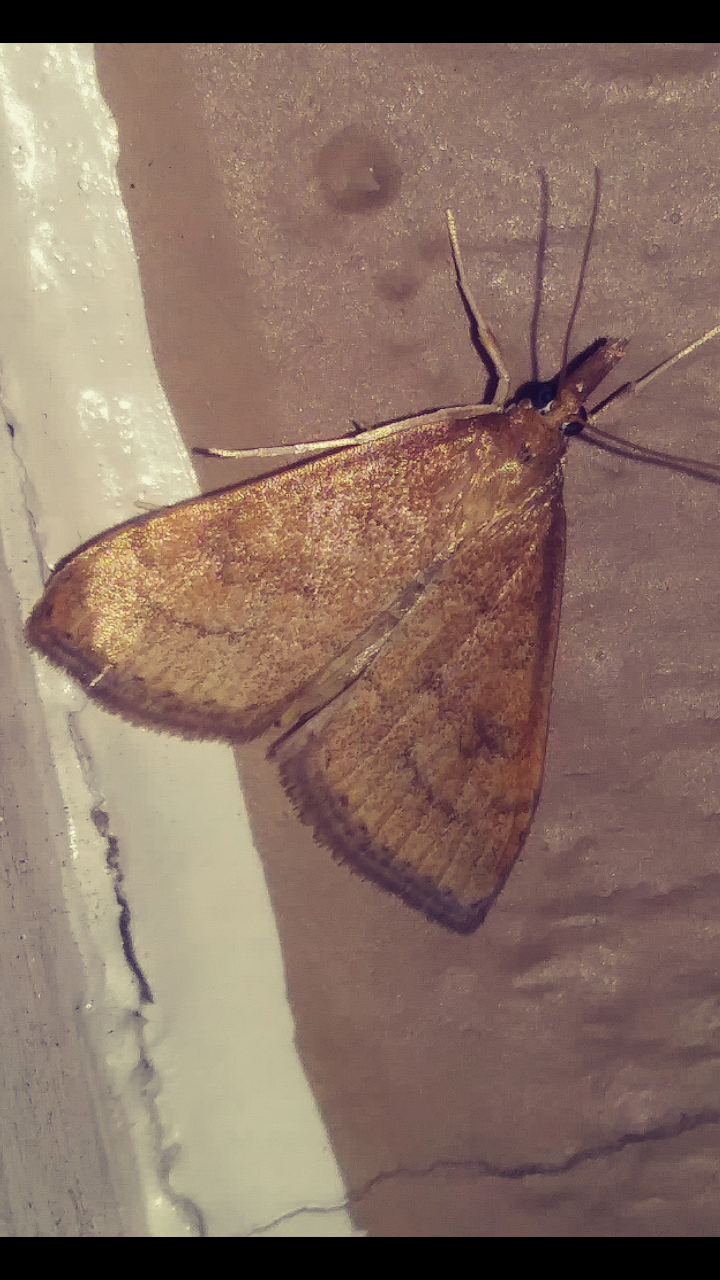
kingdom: Animalia
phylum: Arthropoda
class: Insecta
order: Lepidoptera
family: Crambidae
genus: Udea
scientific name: Udea rubigalis
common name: Celery leaftier moth
